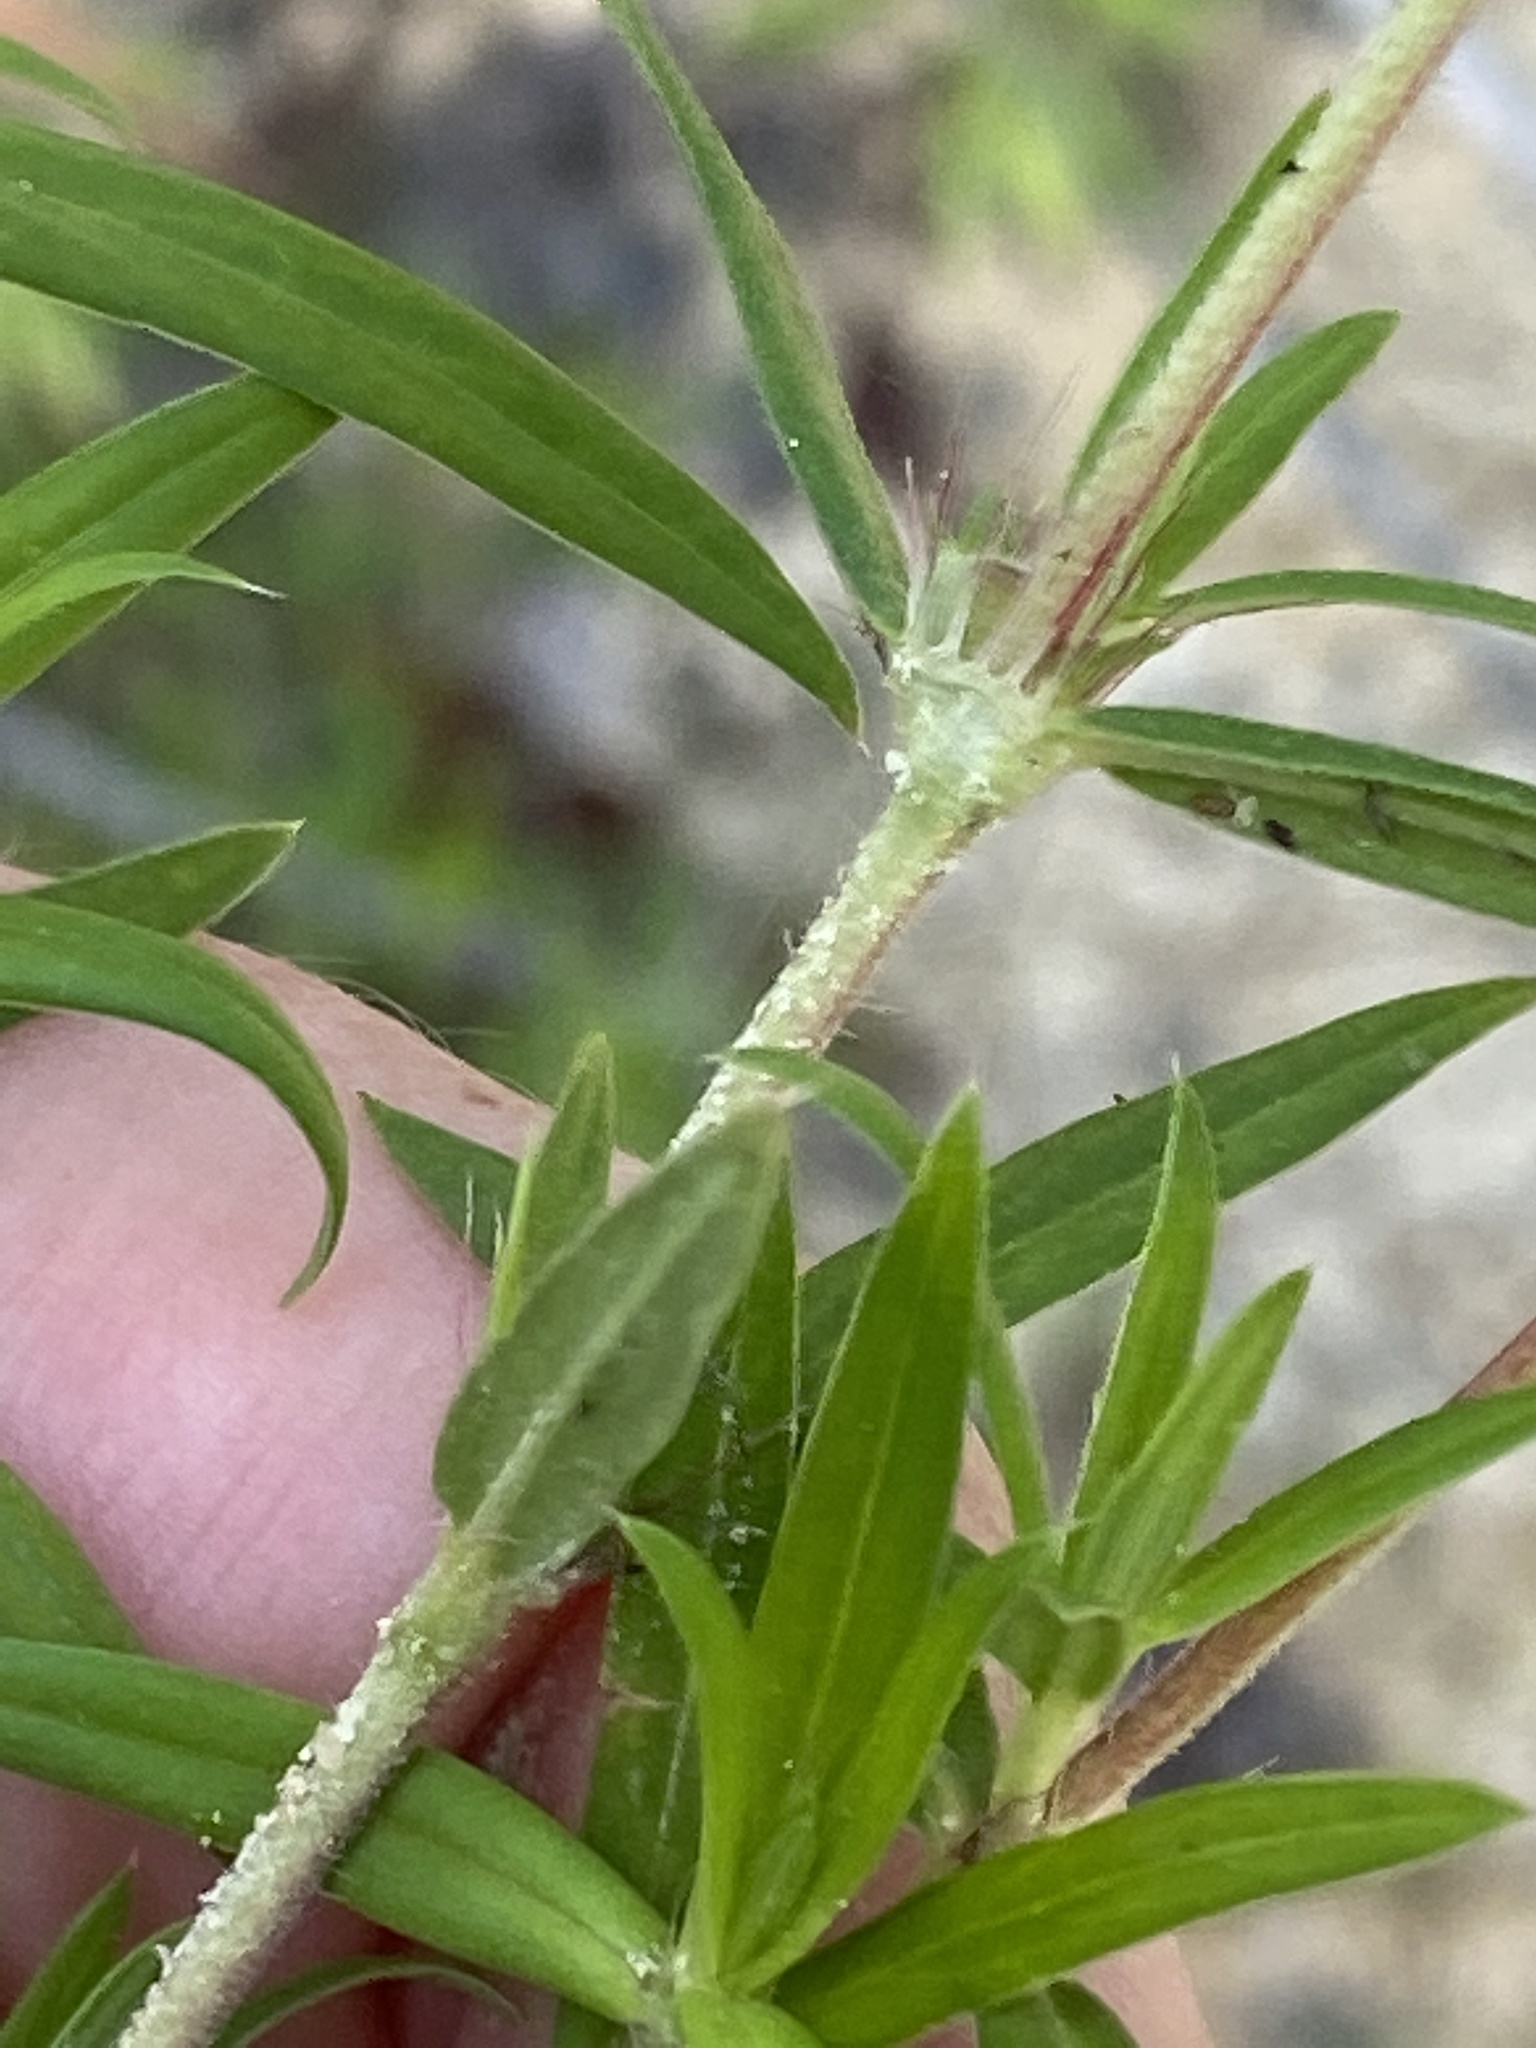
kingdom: Plantae
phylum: Tracheophyta
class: Magnoliopsida
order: Gentianales
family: Rubiaceae
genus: Hexasepalum
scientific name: Hexasepalum teres
